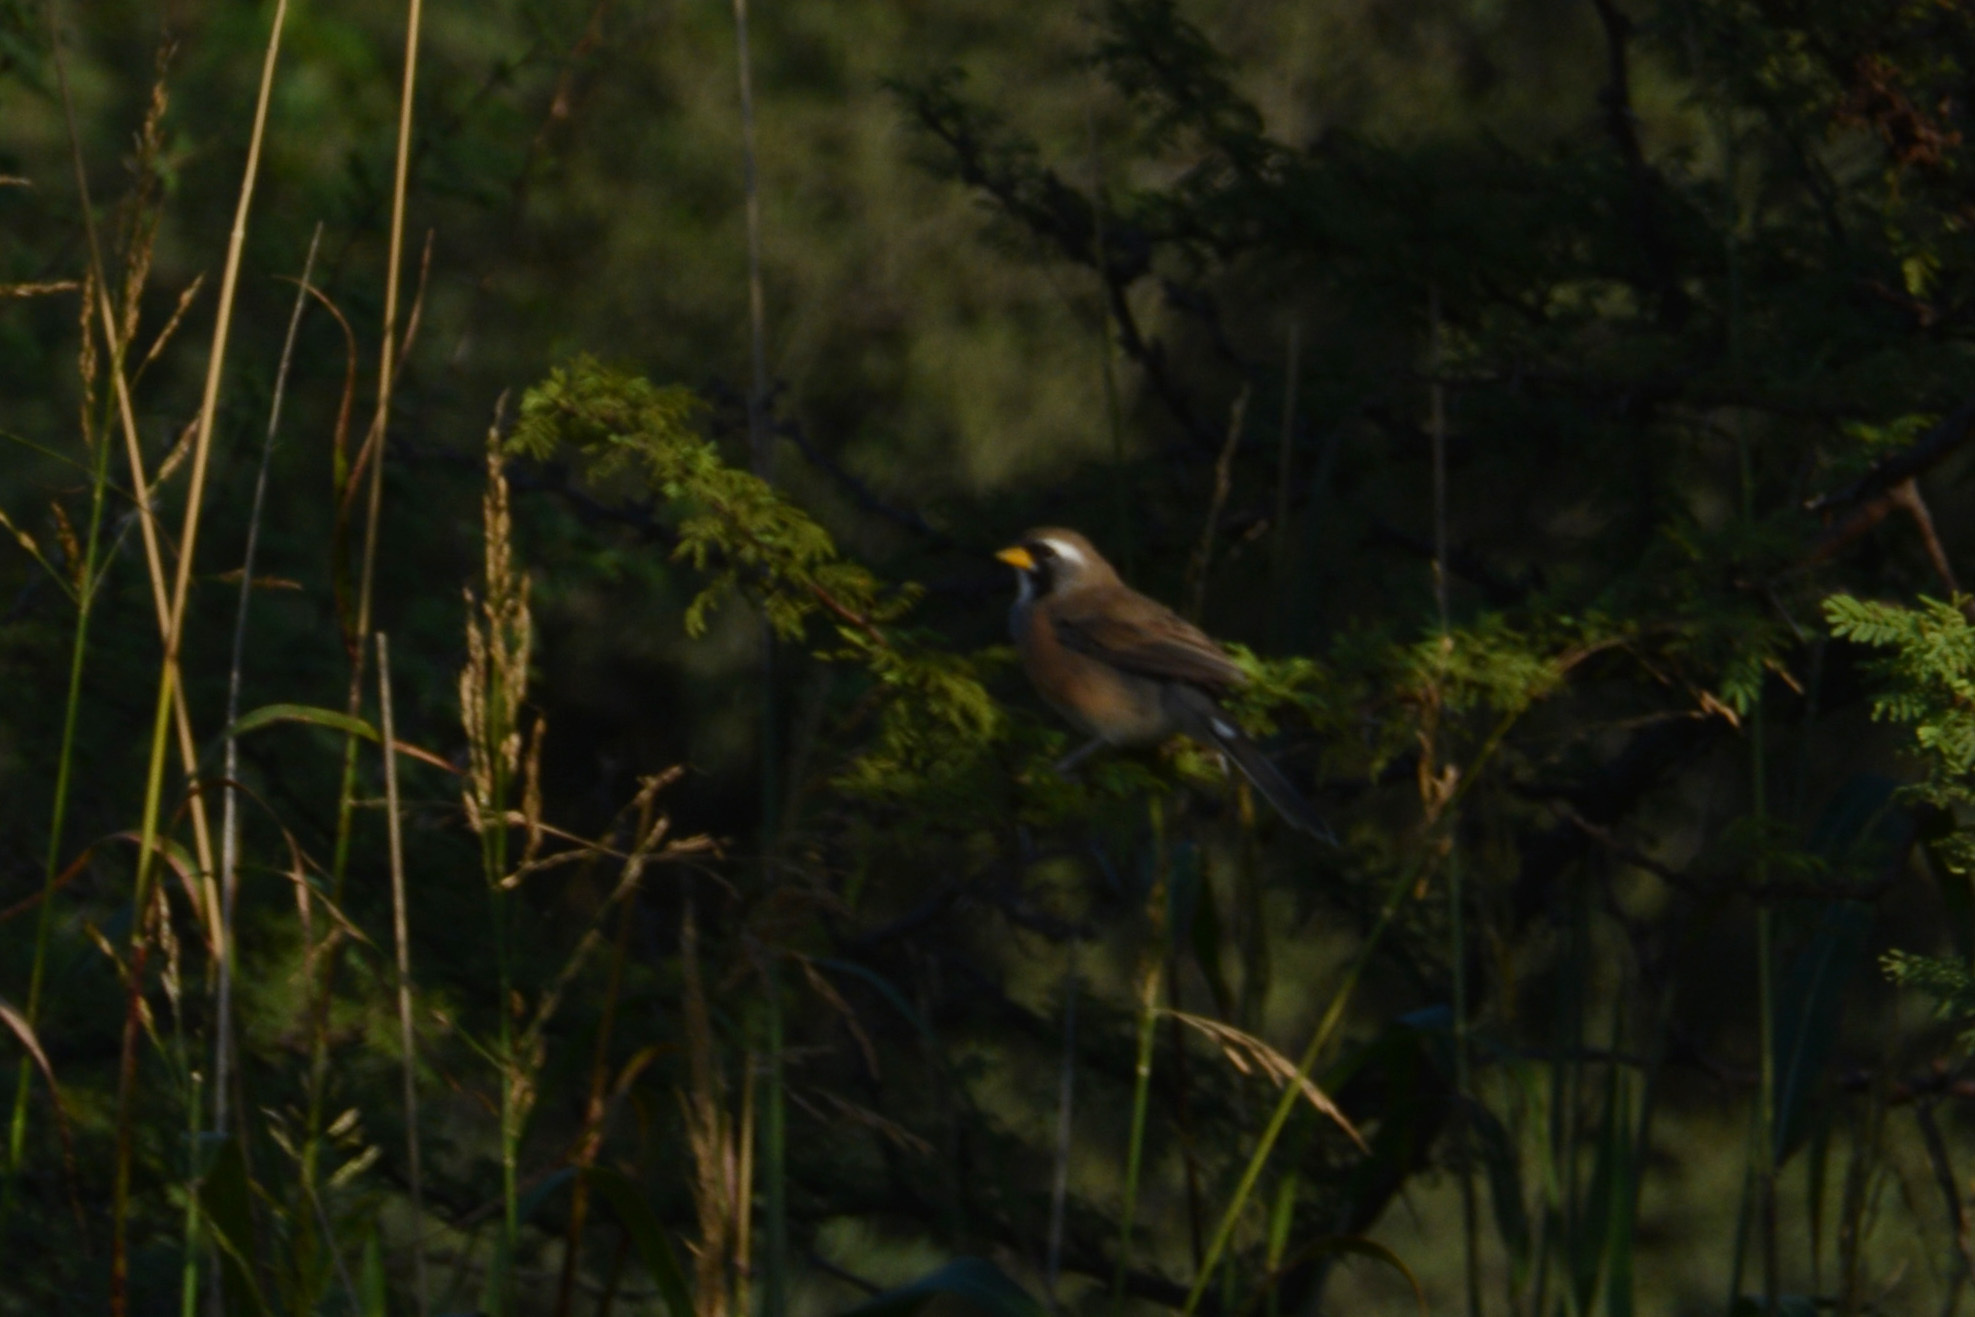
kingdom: Animalia
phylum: Chordata
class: Aves
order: Passeriformes
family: Thraupidae
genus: Saltatricula
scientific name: Saltatricula multicolor
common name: Many-colored chaco finch
